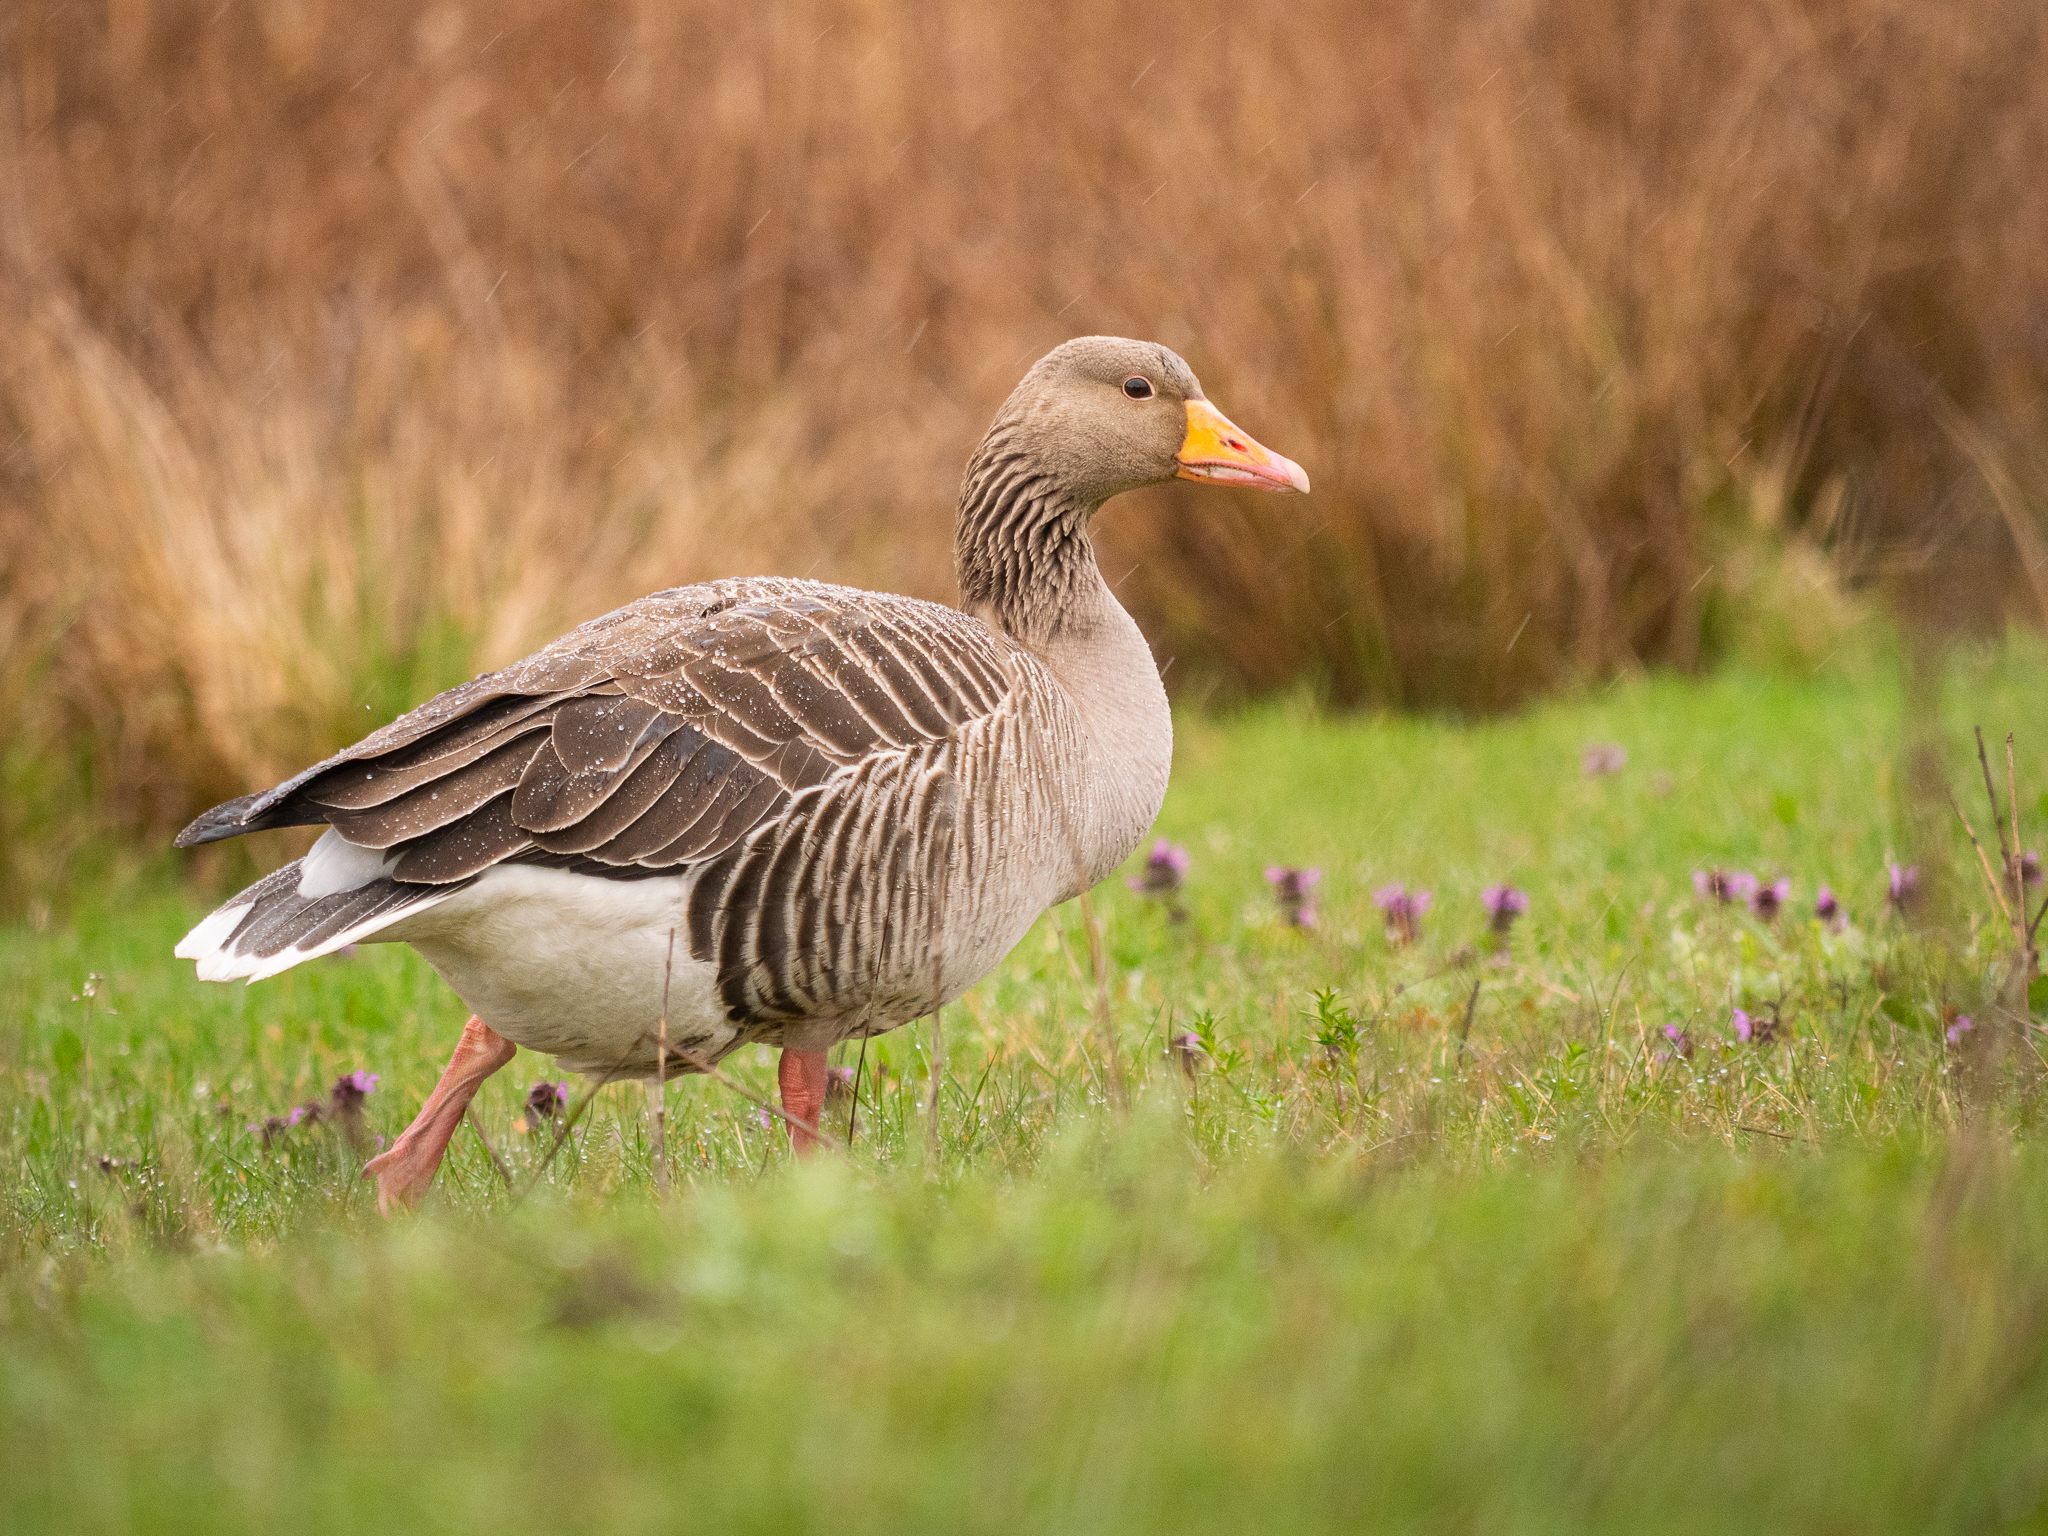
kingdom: Animalia
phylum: Chordata
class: Aves
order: Anseriformes
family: Anatidae
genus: Anser
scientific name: Anser anser
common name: Greylag goose
